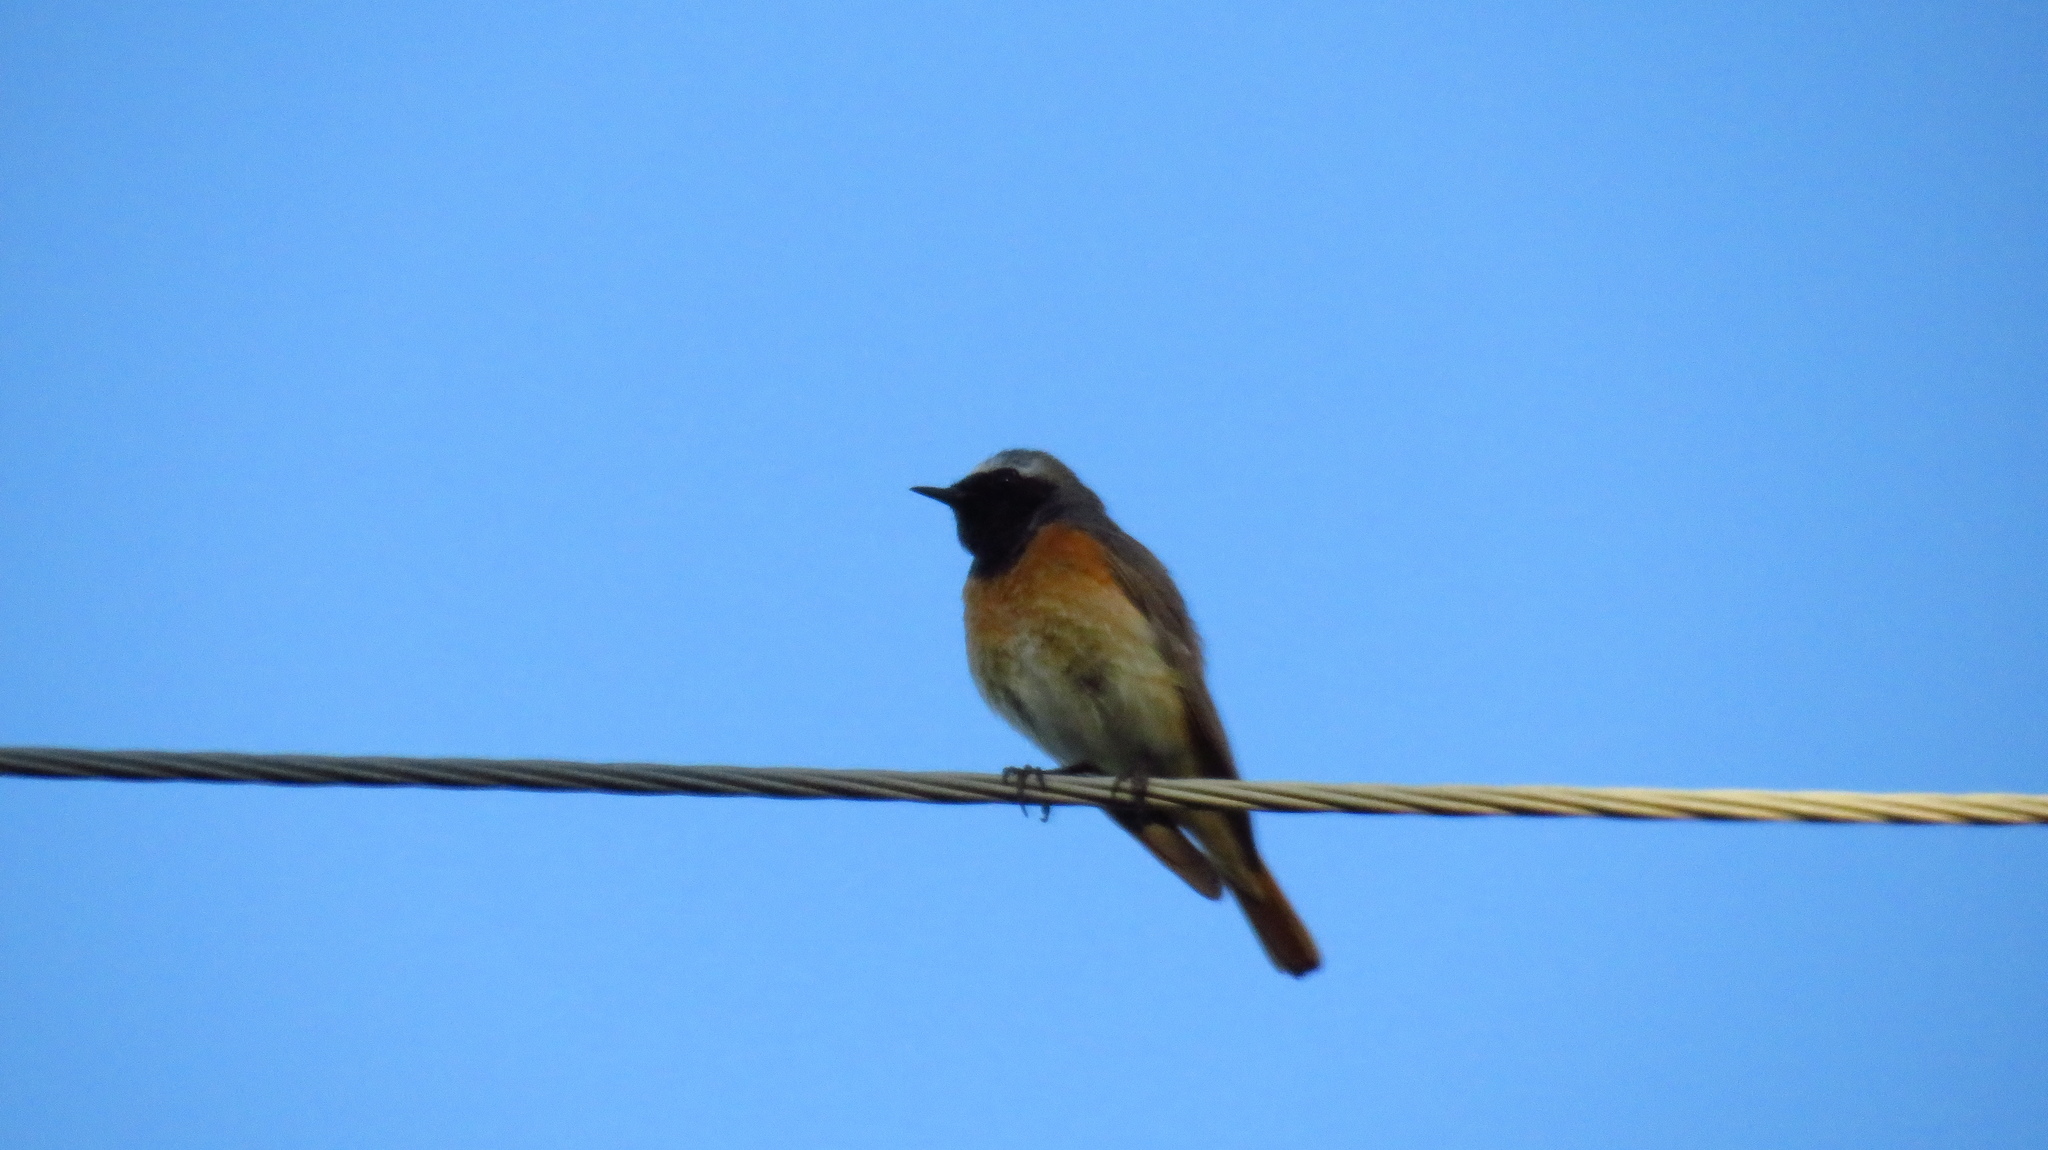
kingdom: Animalia
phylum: Chordata
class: Aves
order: Passeriformes
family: Muscicapidae
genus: Phoenicurus
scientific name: Phoenicurus phoenicurus
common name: Common redstart
